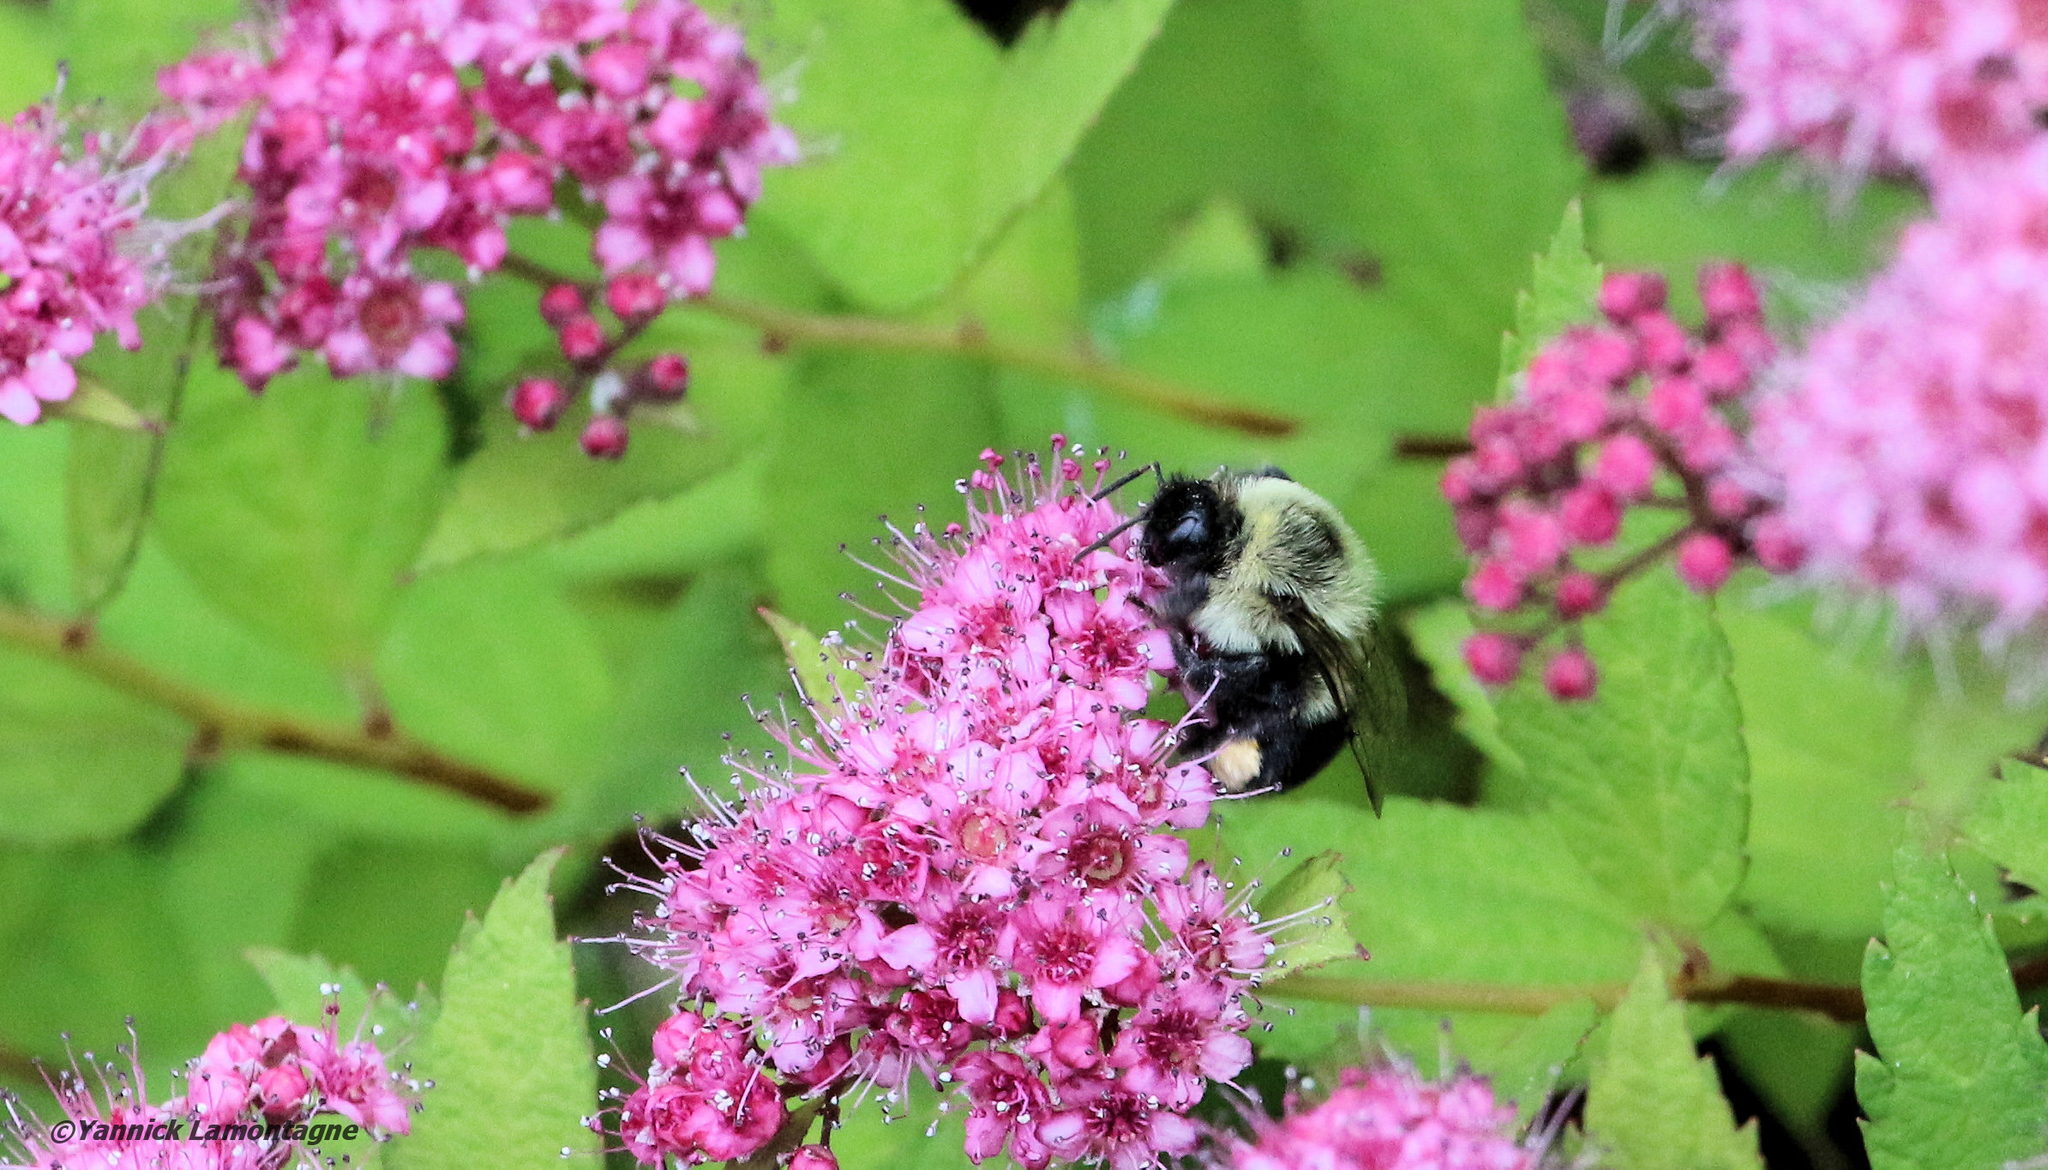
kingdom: Animalia
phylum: Arthropoda
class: Insecta
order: Hymenoptera
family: Apidae
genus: Bombus
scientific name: Bombus impatiens
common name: Common eastern bumble bee
